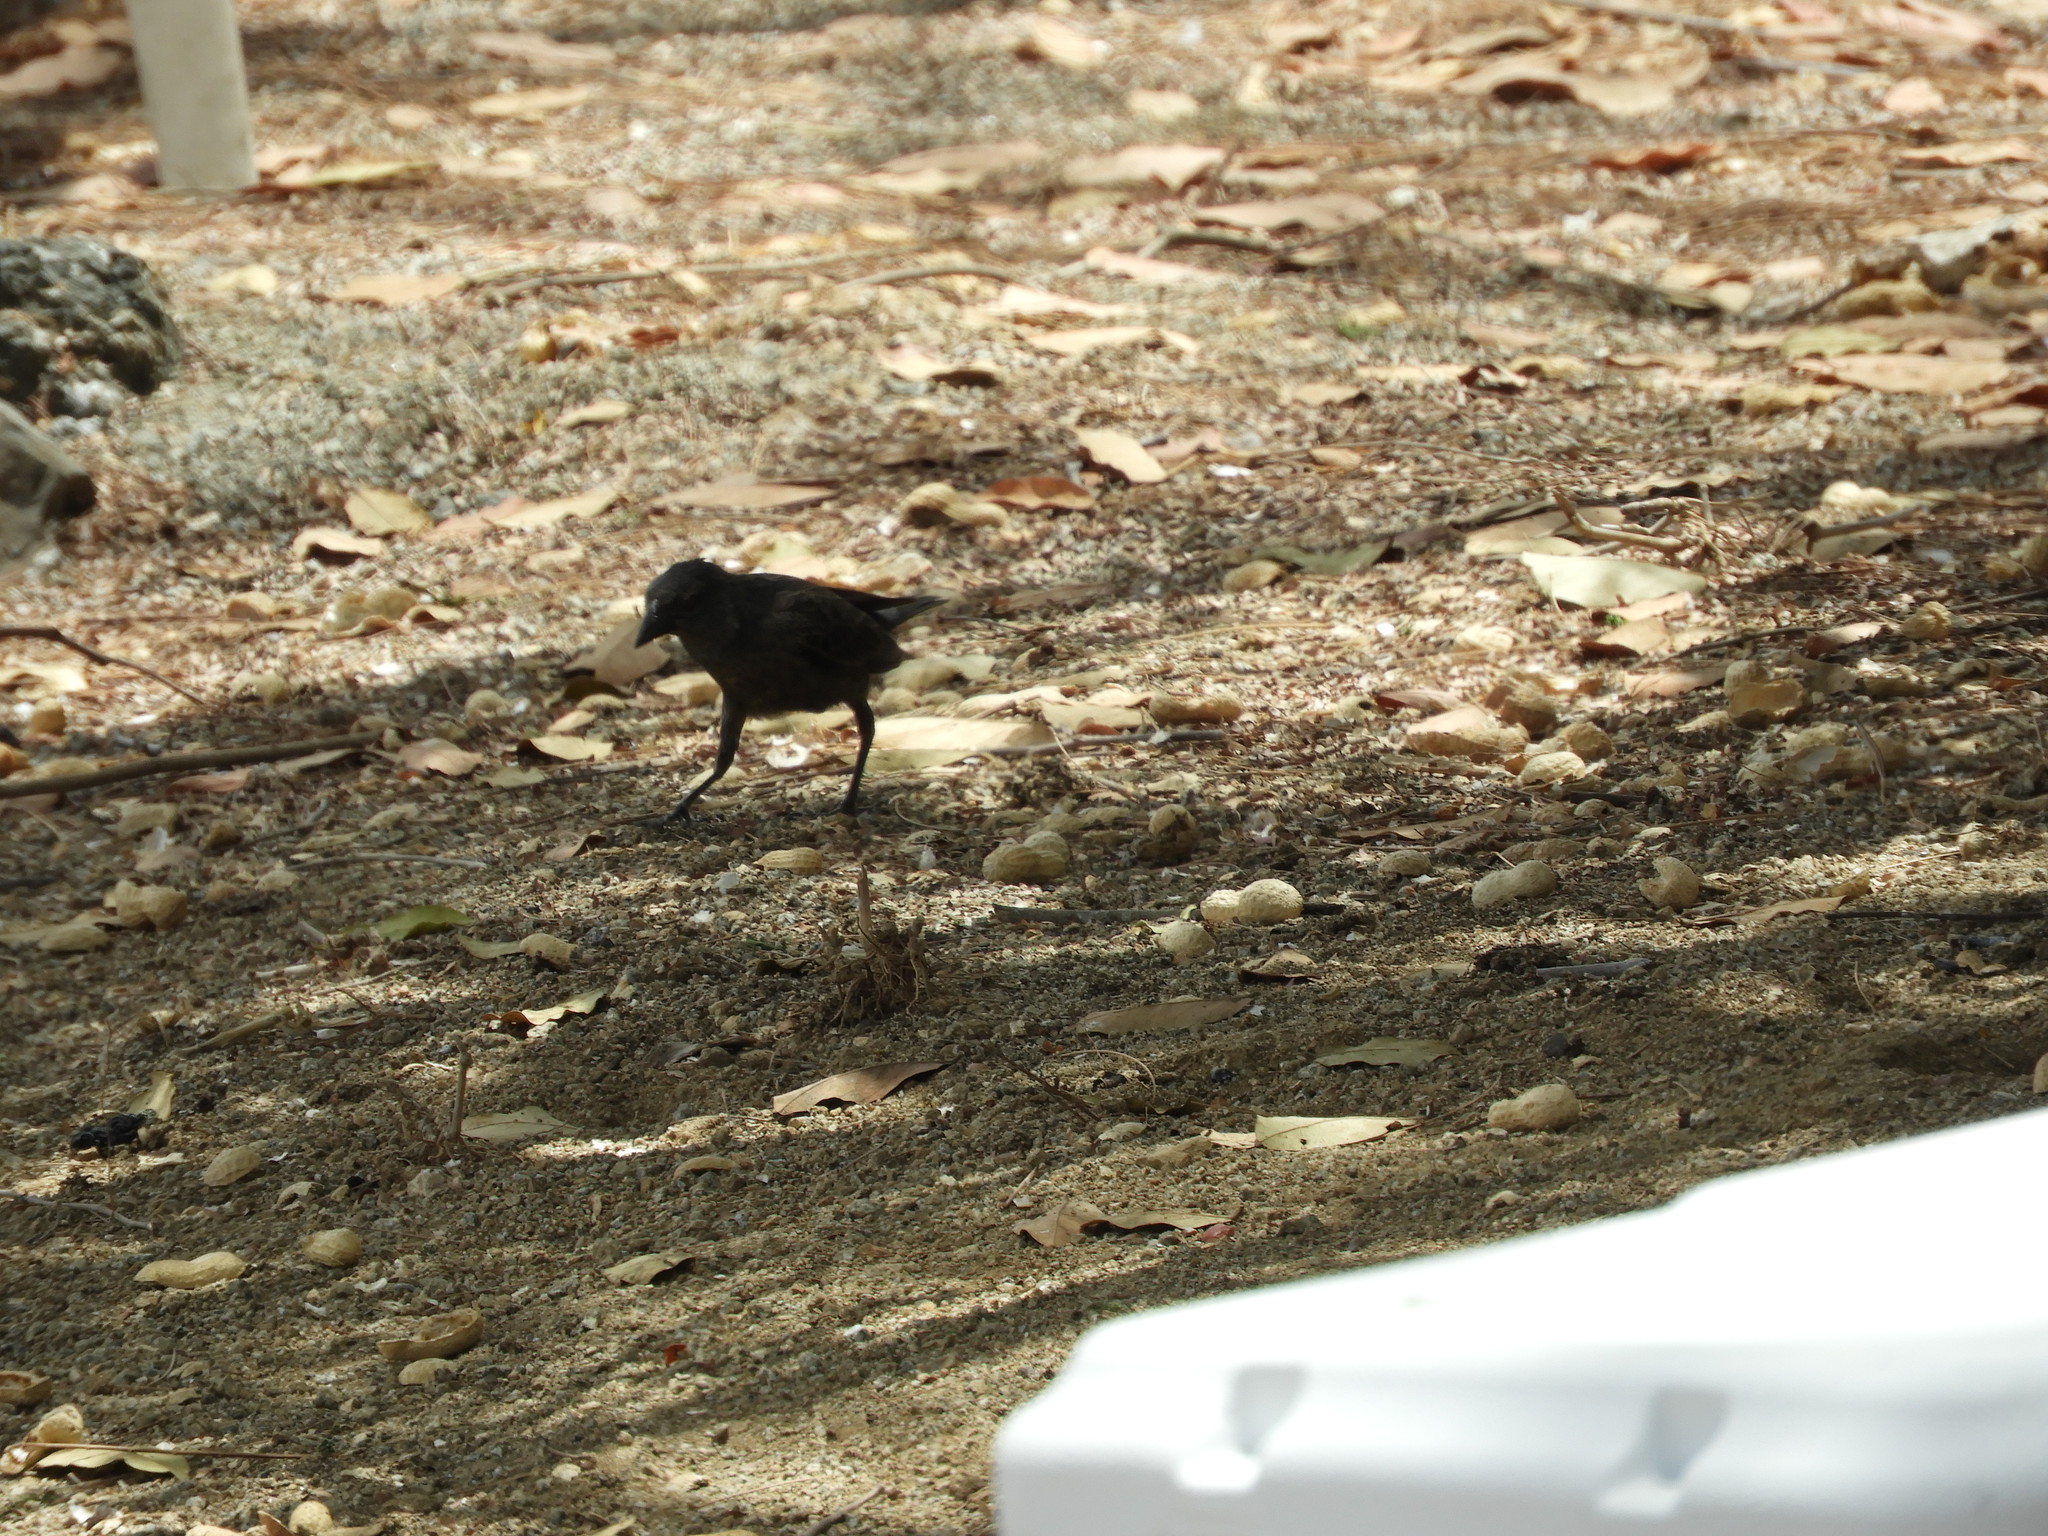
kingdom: Animalia
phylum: Chordata
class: Aves
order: Passeriformes
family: Icteridae
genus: Molothrus
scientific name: Molothrus aeneus
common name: Bronzed cowbird
